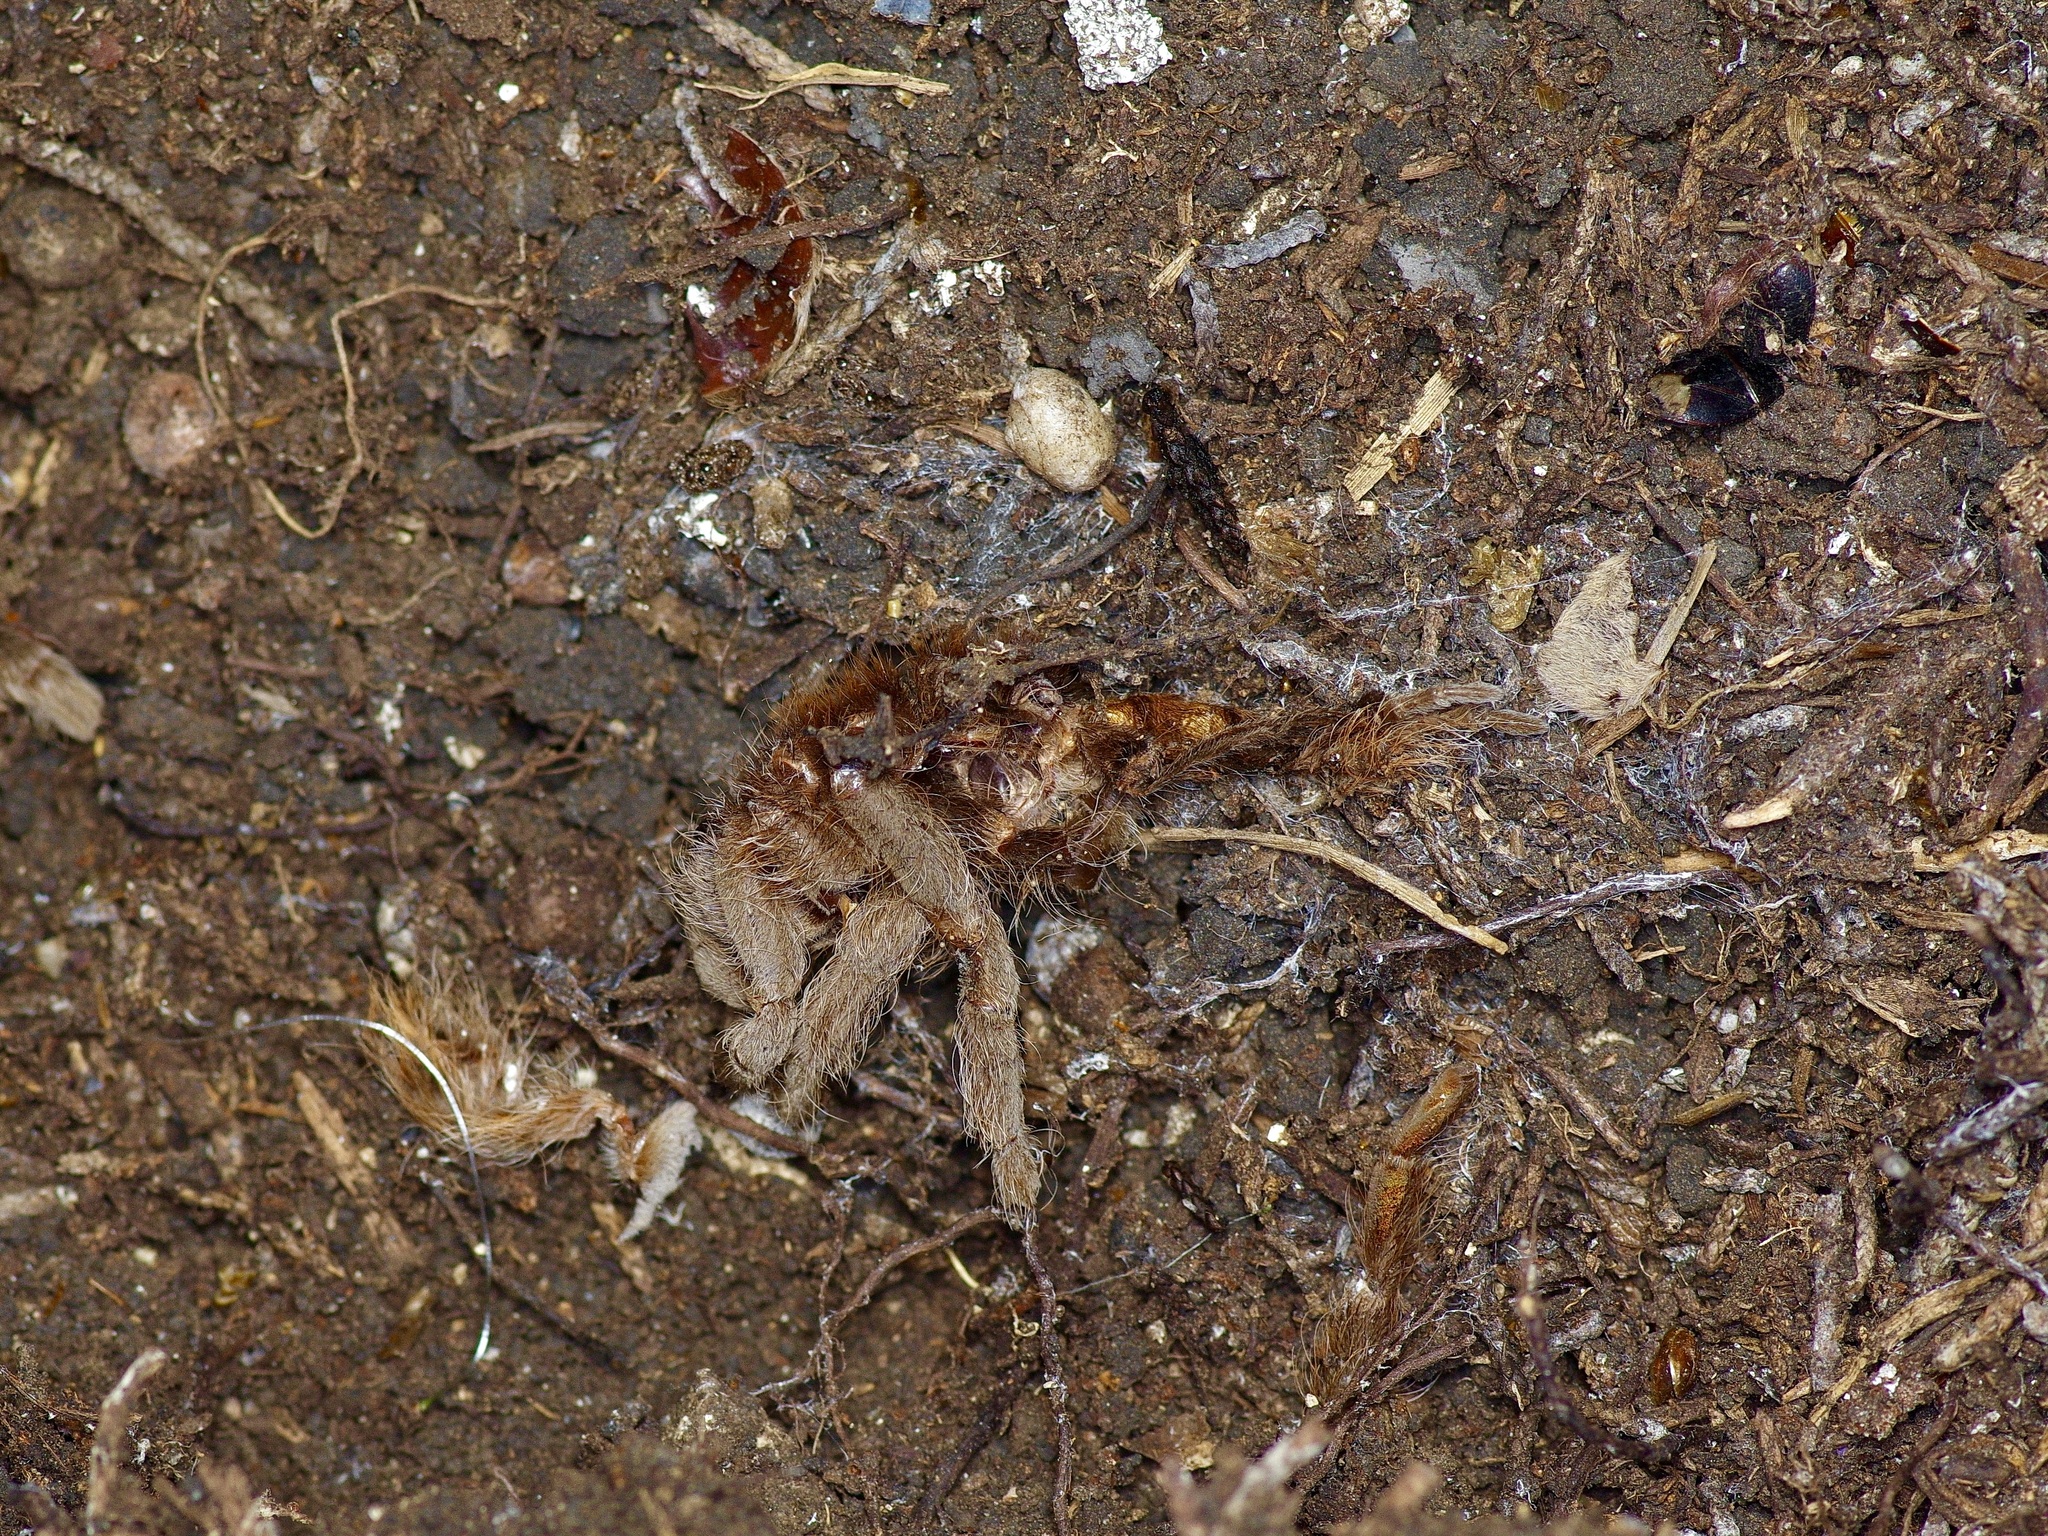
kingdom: Animalia
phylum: Arthropoda
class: Arachnida
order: Araneae
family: Theraphosidae
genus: Aphonopelma
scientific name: Aphonopelma hentzi
